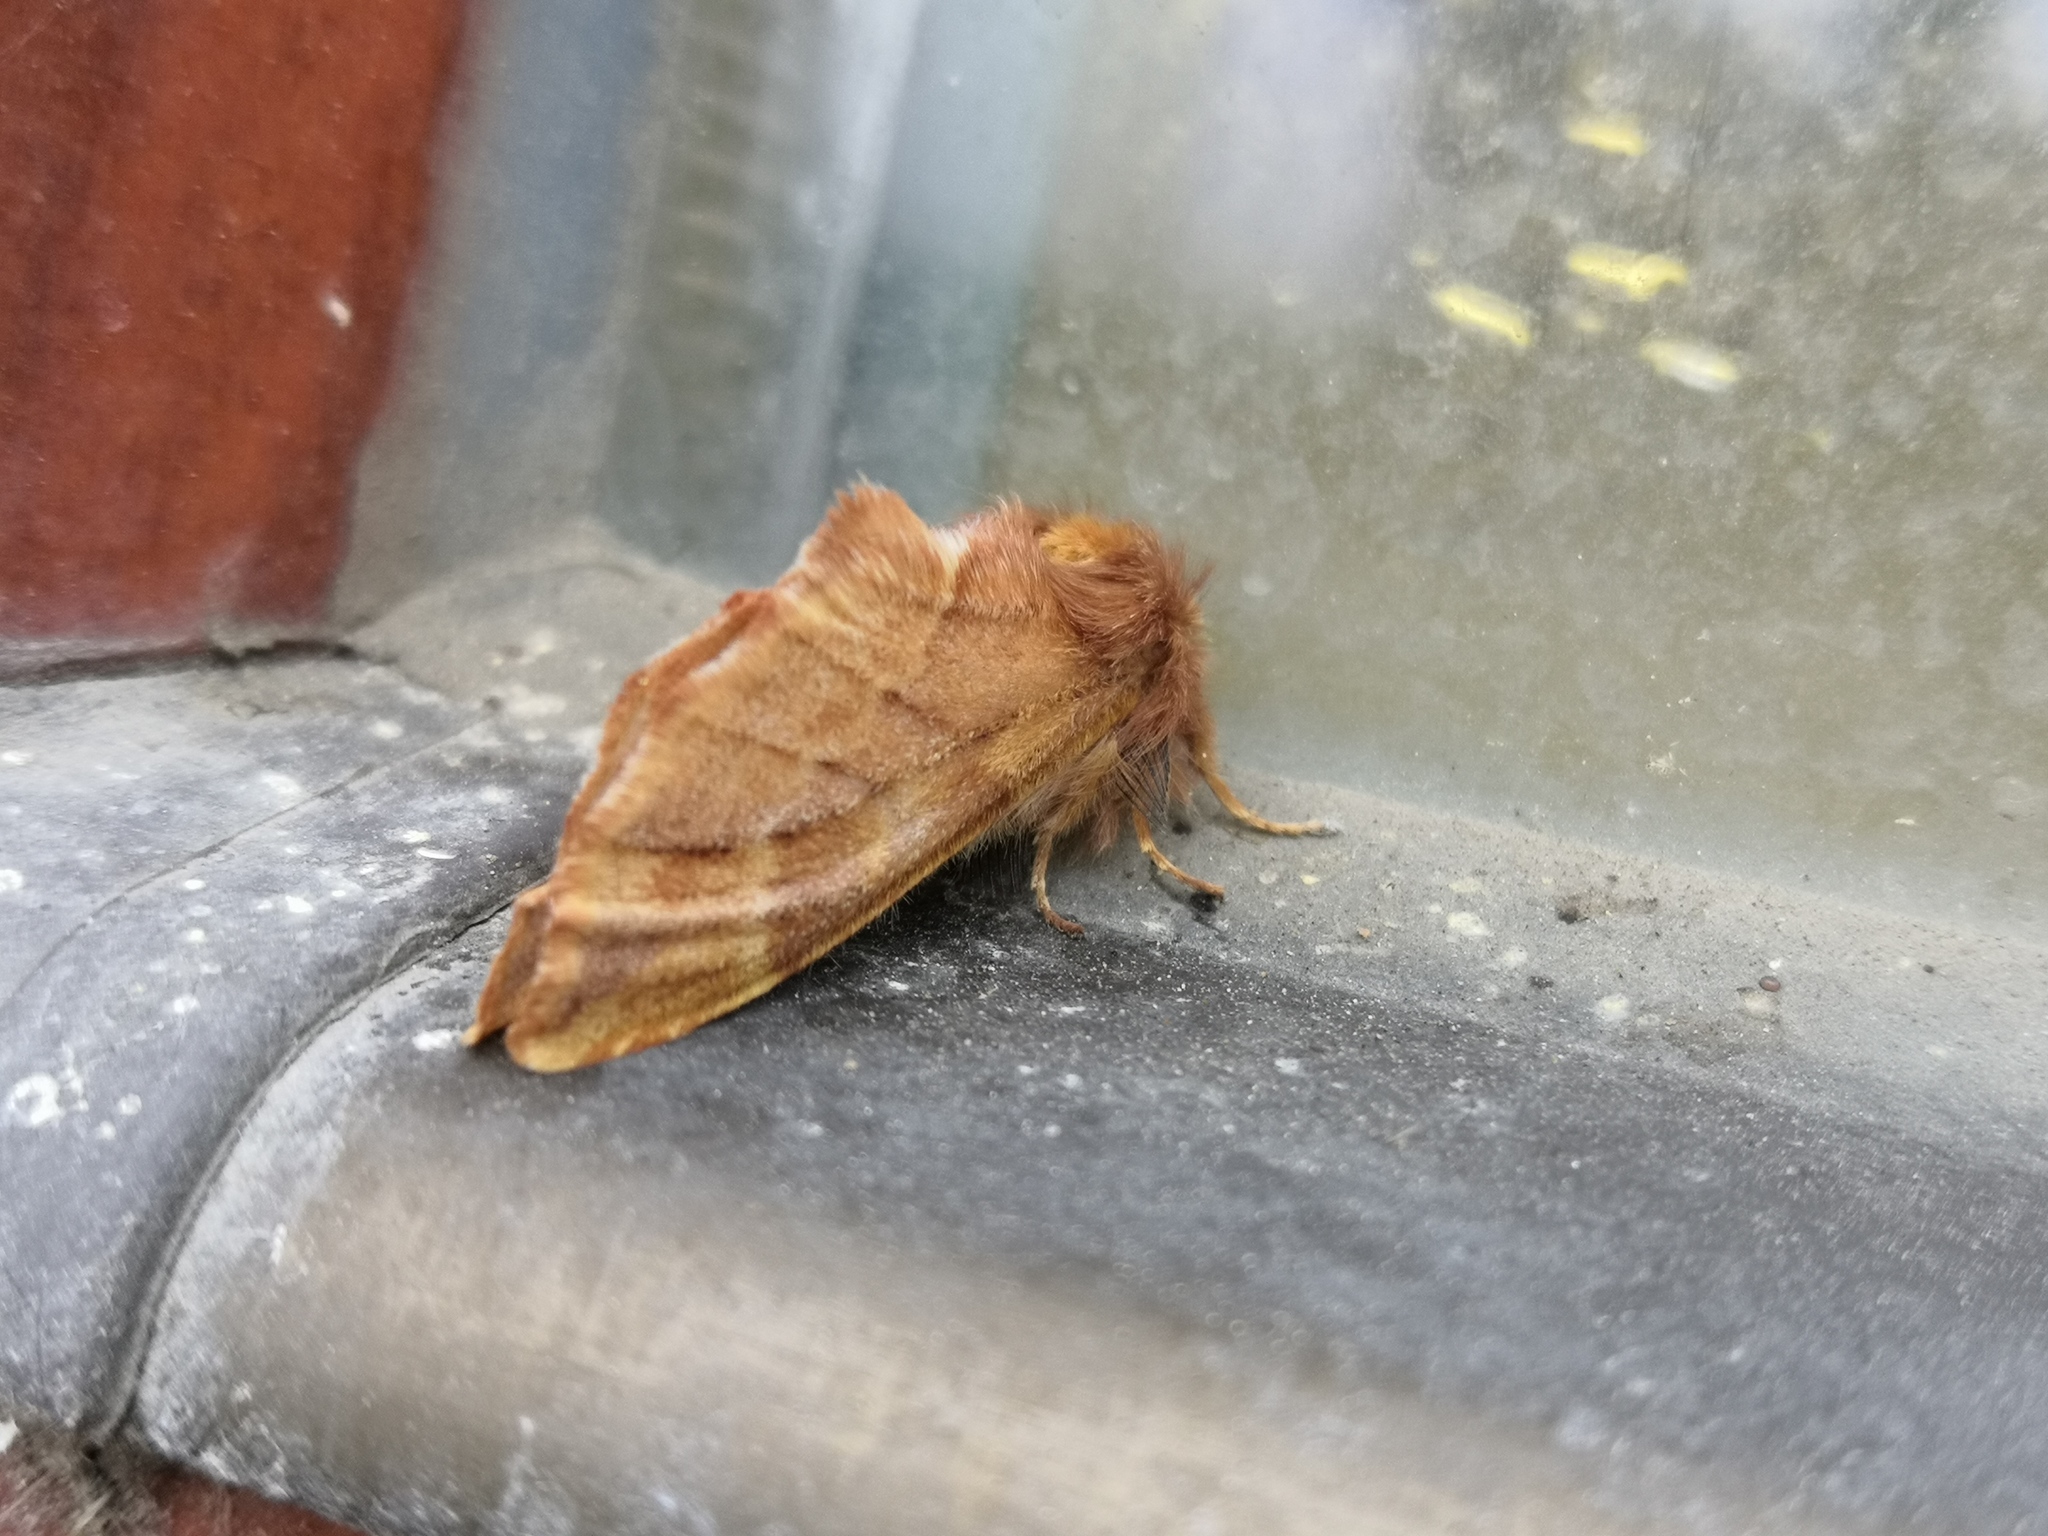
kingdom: Animalia
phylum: Arthropoda
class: Insecta
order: Lepidoptera
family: Notodontidae
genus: Ptilophora
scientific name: Ptilophora plumigera
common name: Plumed prominent
